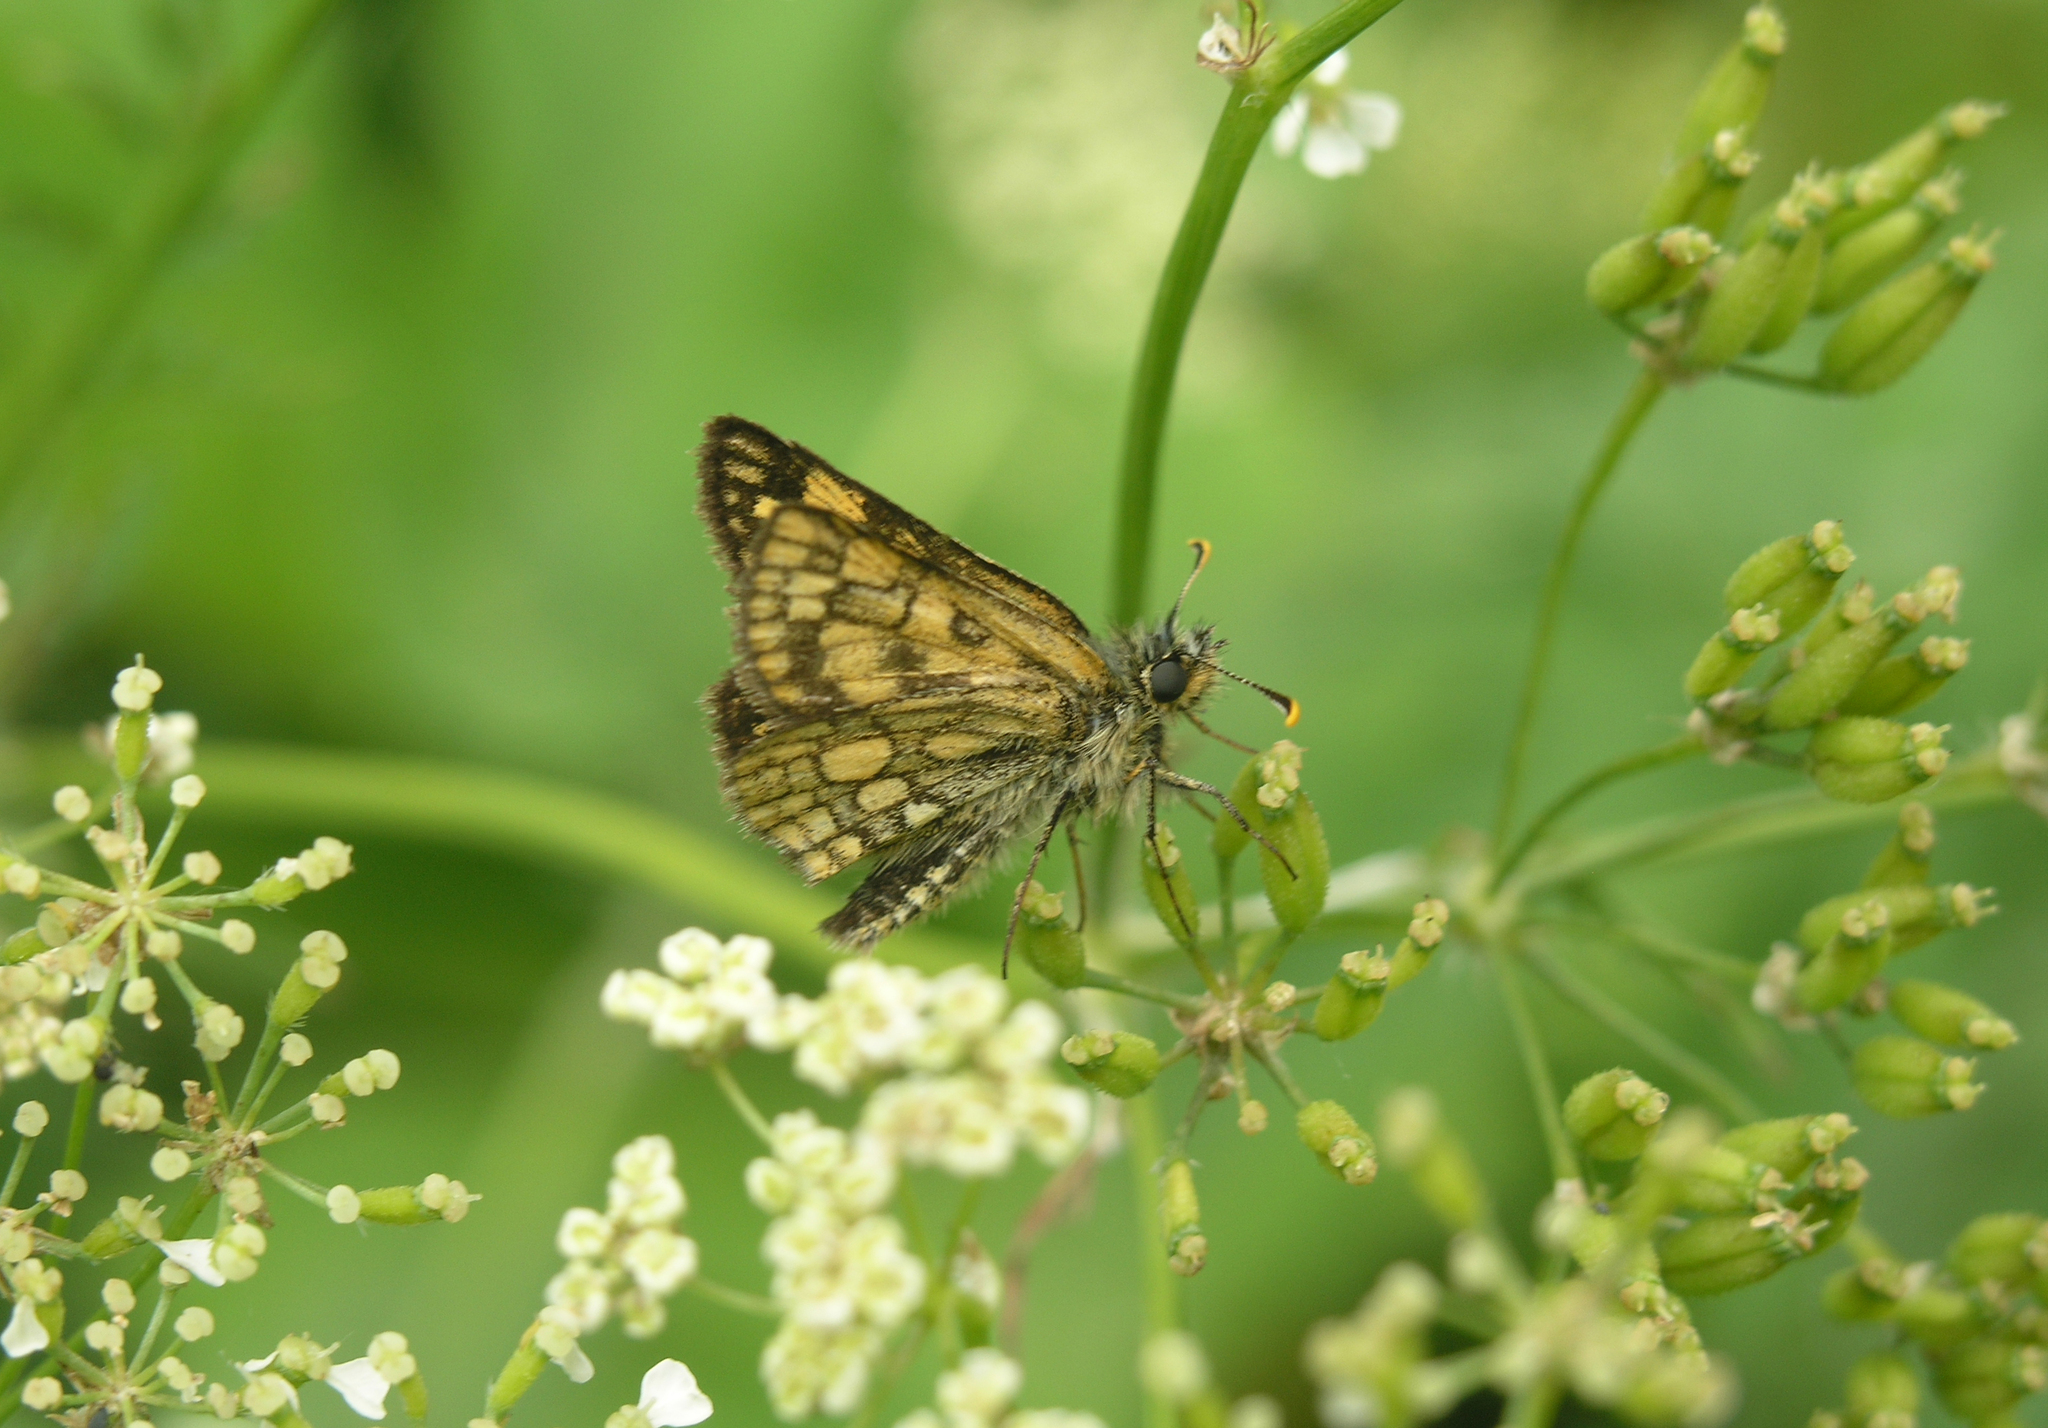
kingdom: Animalia
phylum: Arthropoda
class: Insecta
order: Lepidoptera
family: Hesperiidae
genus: Carterocephalus
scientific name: Carterocephalus palaemon
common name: Chequered skipper
